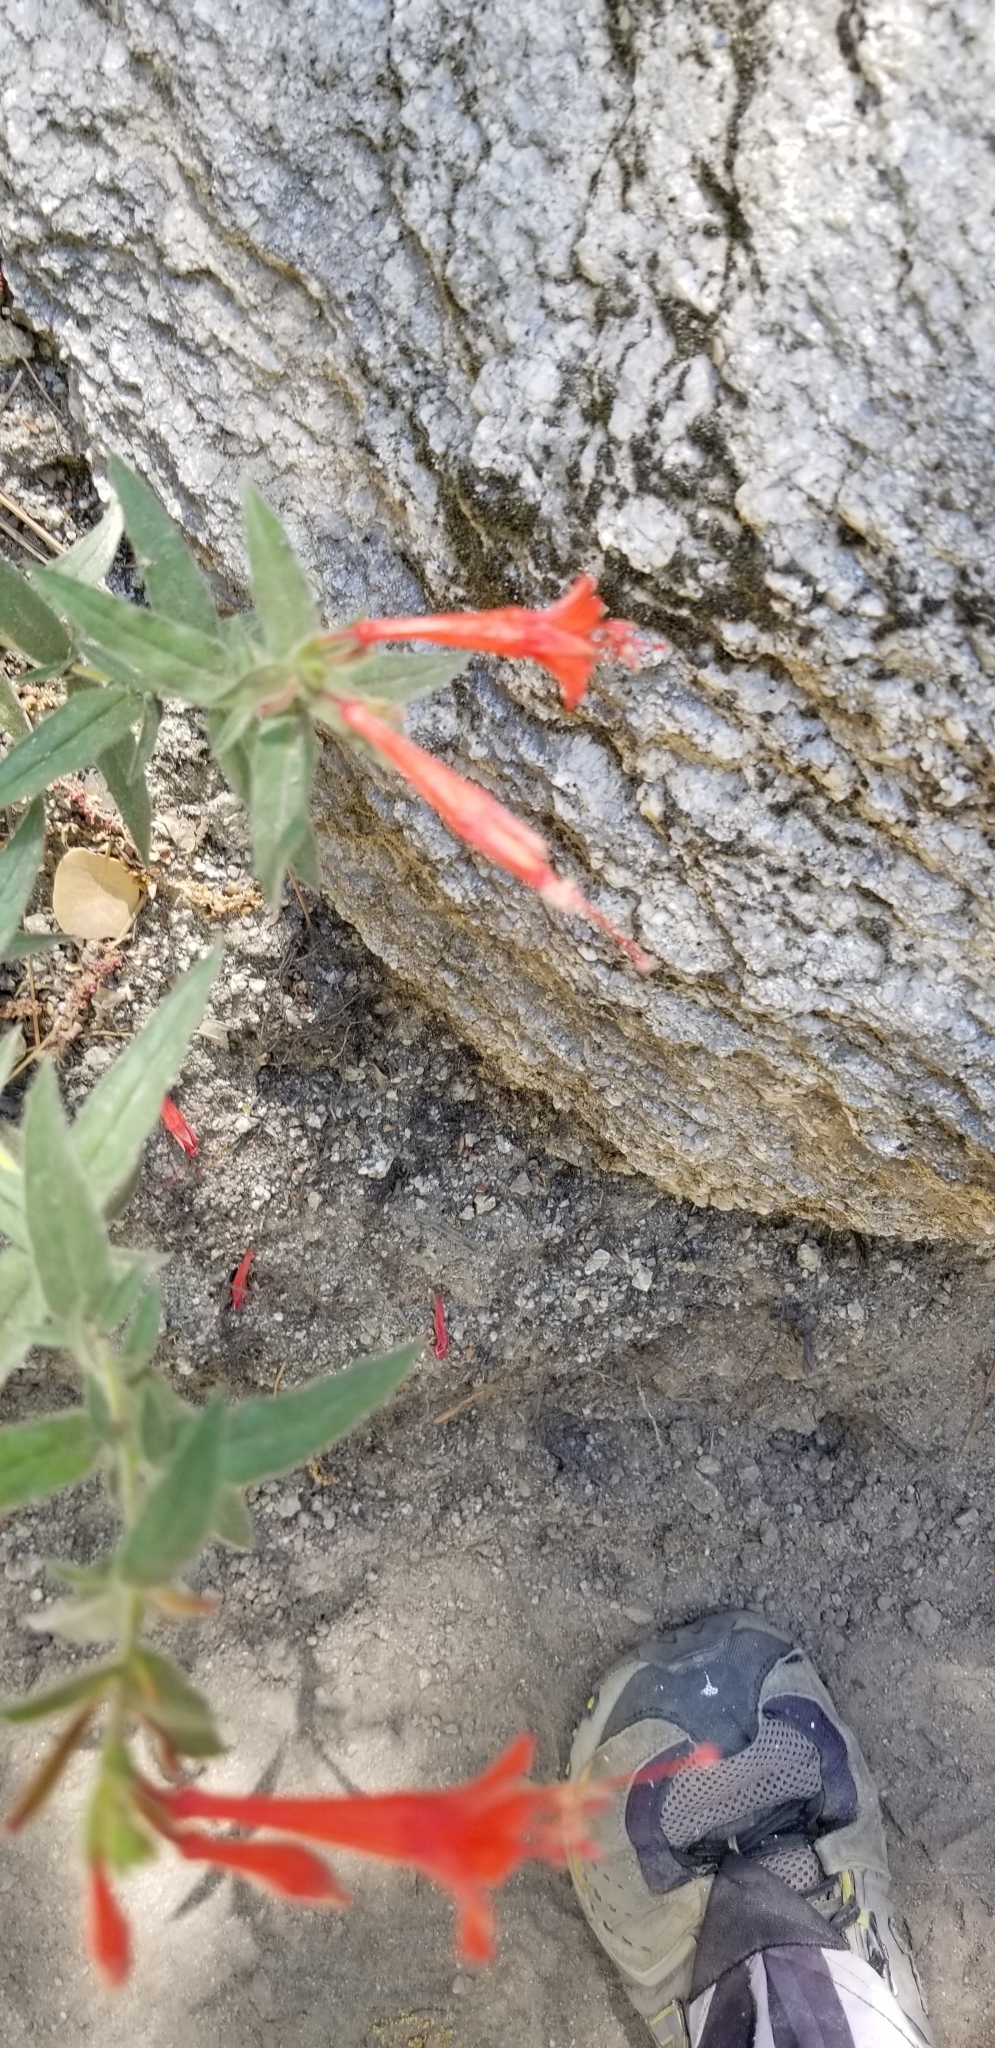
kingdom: Plantae
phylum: Tracheophyta
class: Magnoliopsida
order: Myrtales
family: Onagraceae
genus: Epilobium
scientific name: Epilobium canum
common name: California-fuchsia
